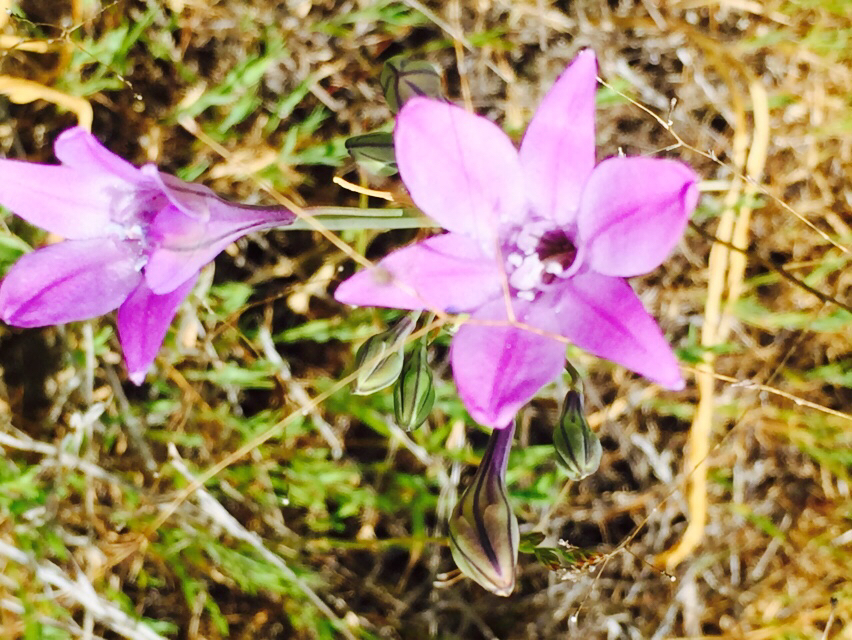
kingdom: Plantae
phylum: Tracheophyta
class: Liliopsida
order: Asparagales
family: Asparagaceae
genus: Triteleia
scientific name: Triteleia laxa
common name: Triplet-lily
